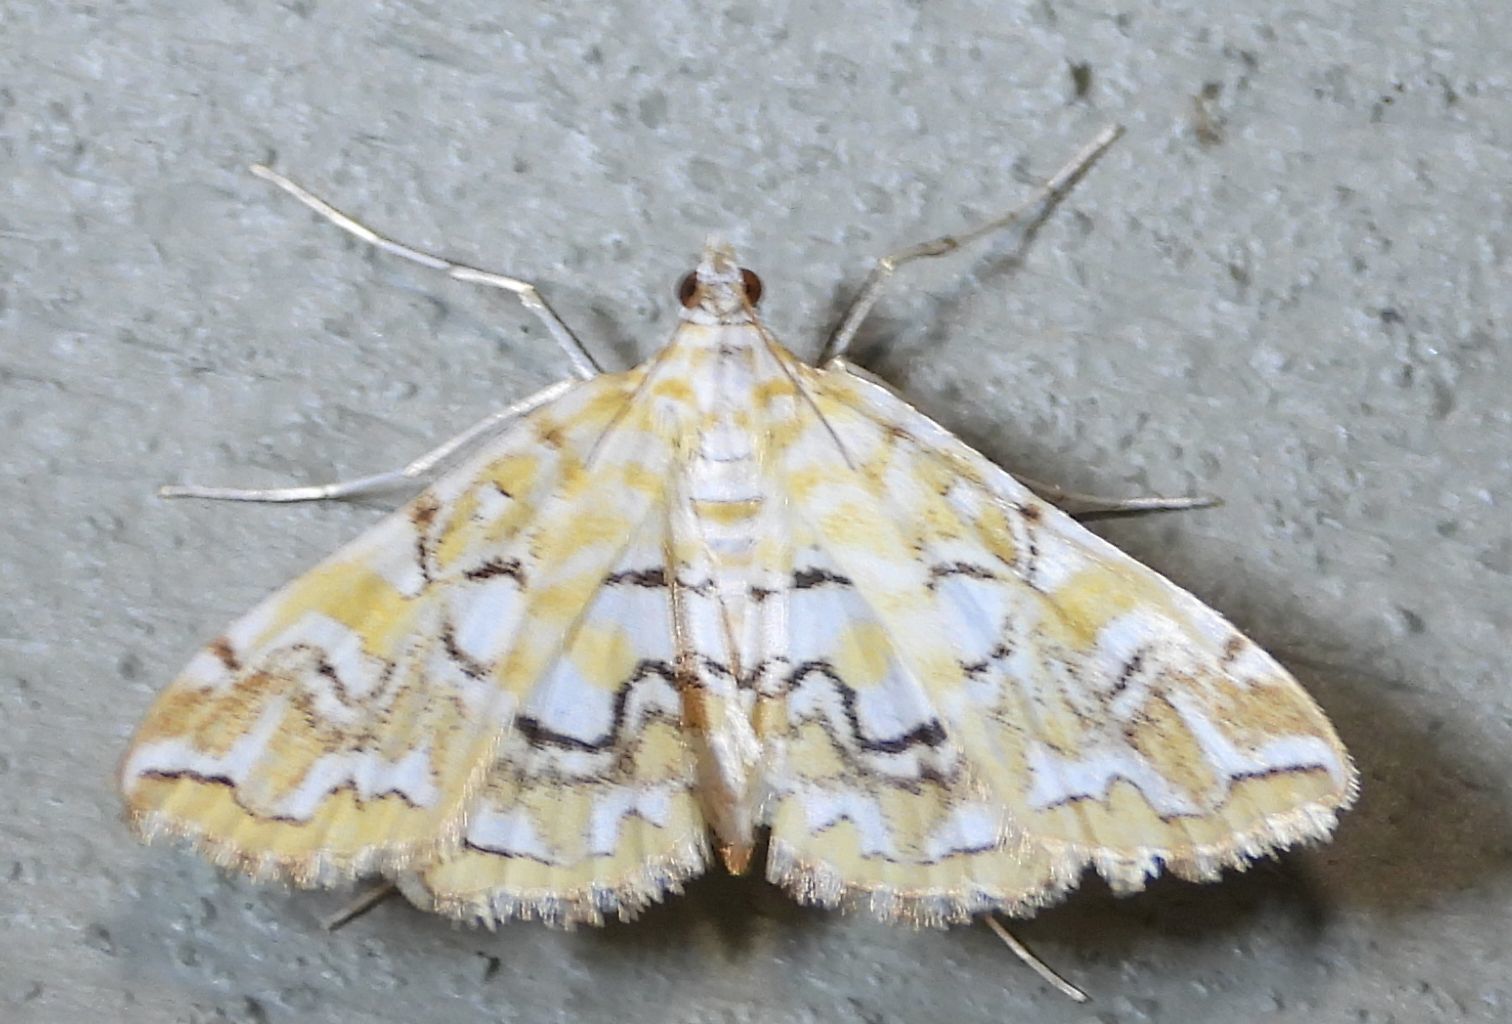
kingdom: Animalia
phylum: Arthropoda
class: Insecta
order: Lepidoptera
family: Crambidae
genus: Elophila
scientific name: Elophila icciusalis
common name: Pondside pyralid moth
